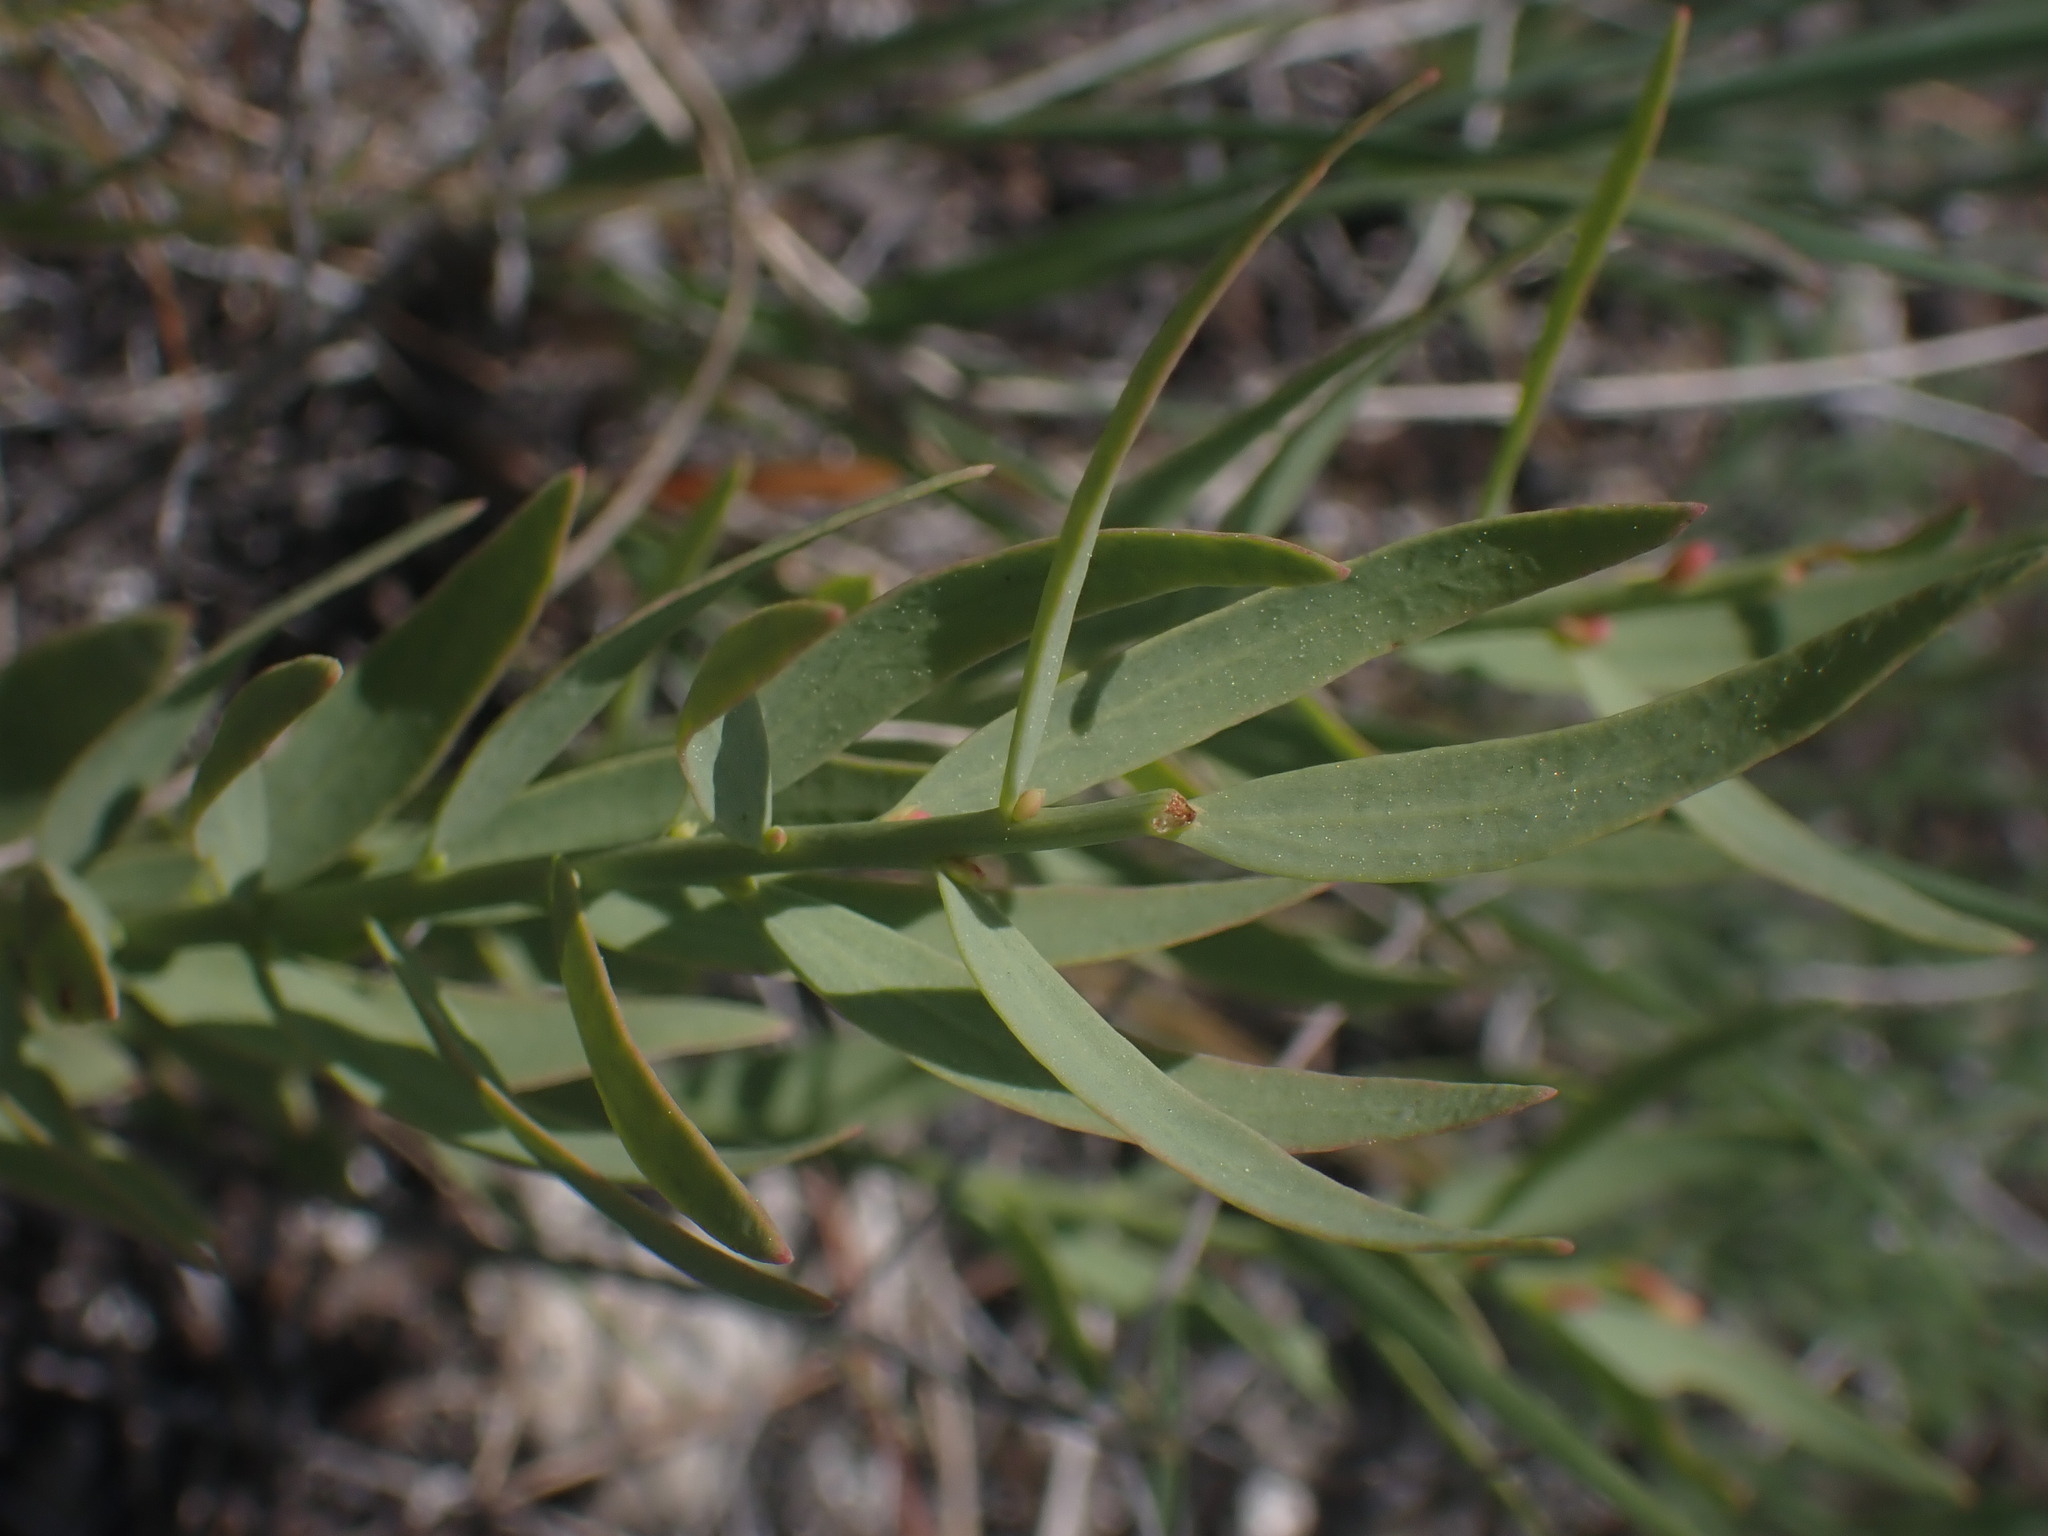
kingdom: Plantae
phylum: Tracheophyta
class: Magnoliopsida
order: Santalales
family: Comandraceae
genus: Comandra
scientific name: Comandra umbellata
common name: Bastard toadflax
